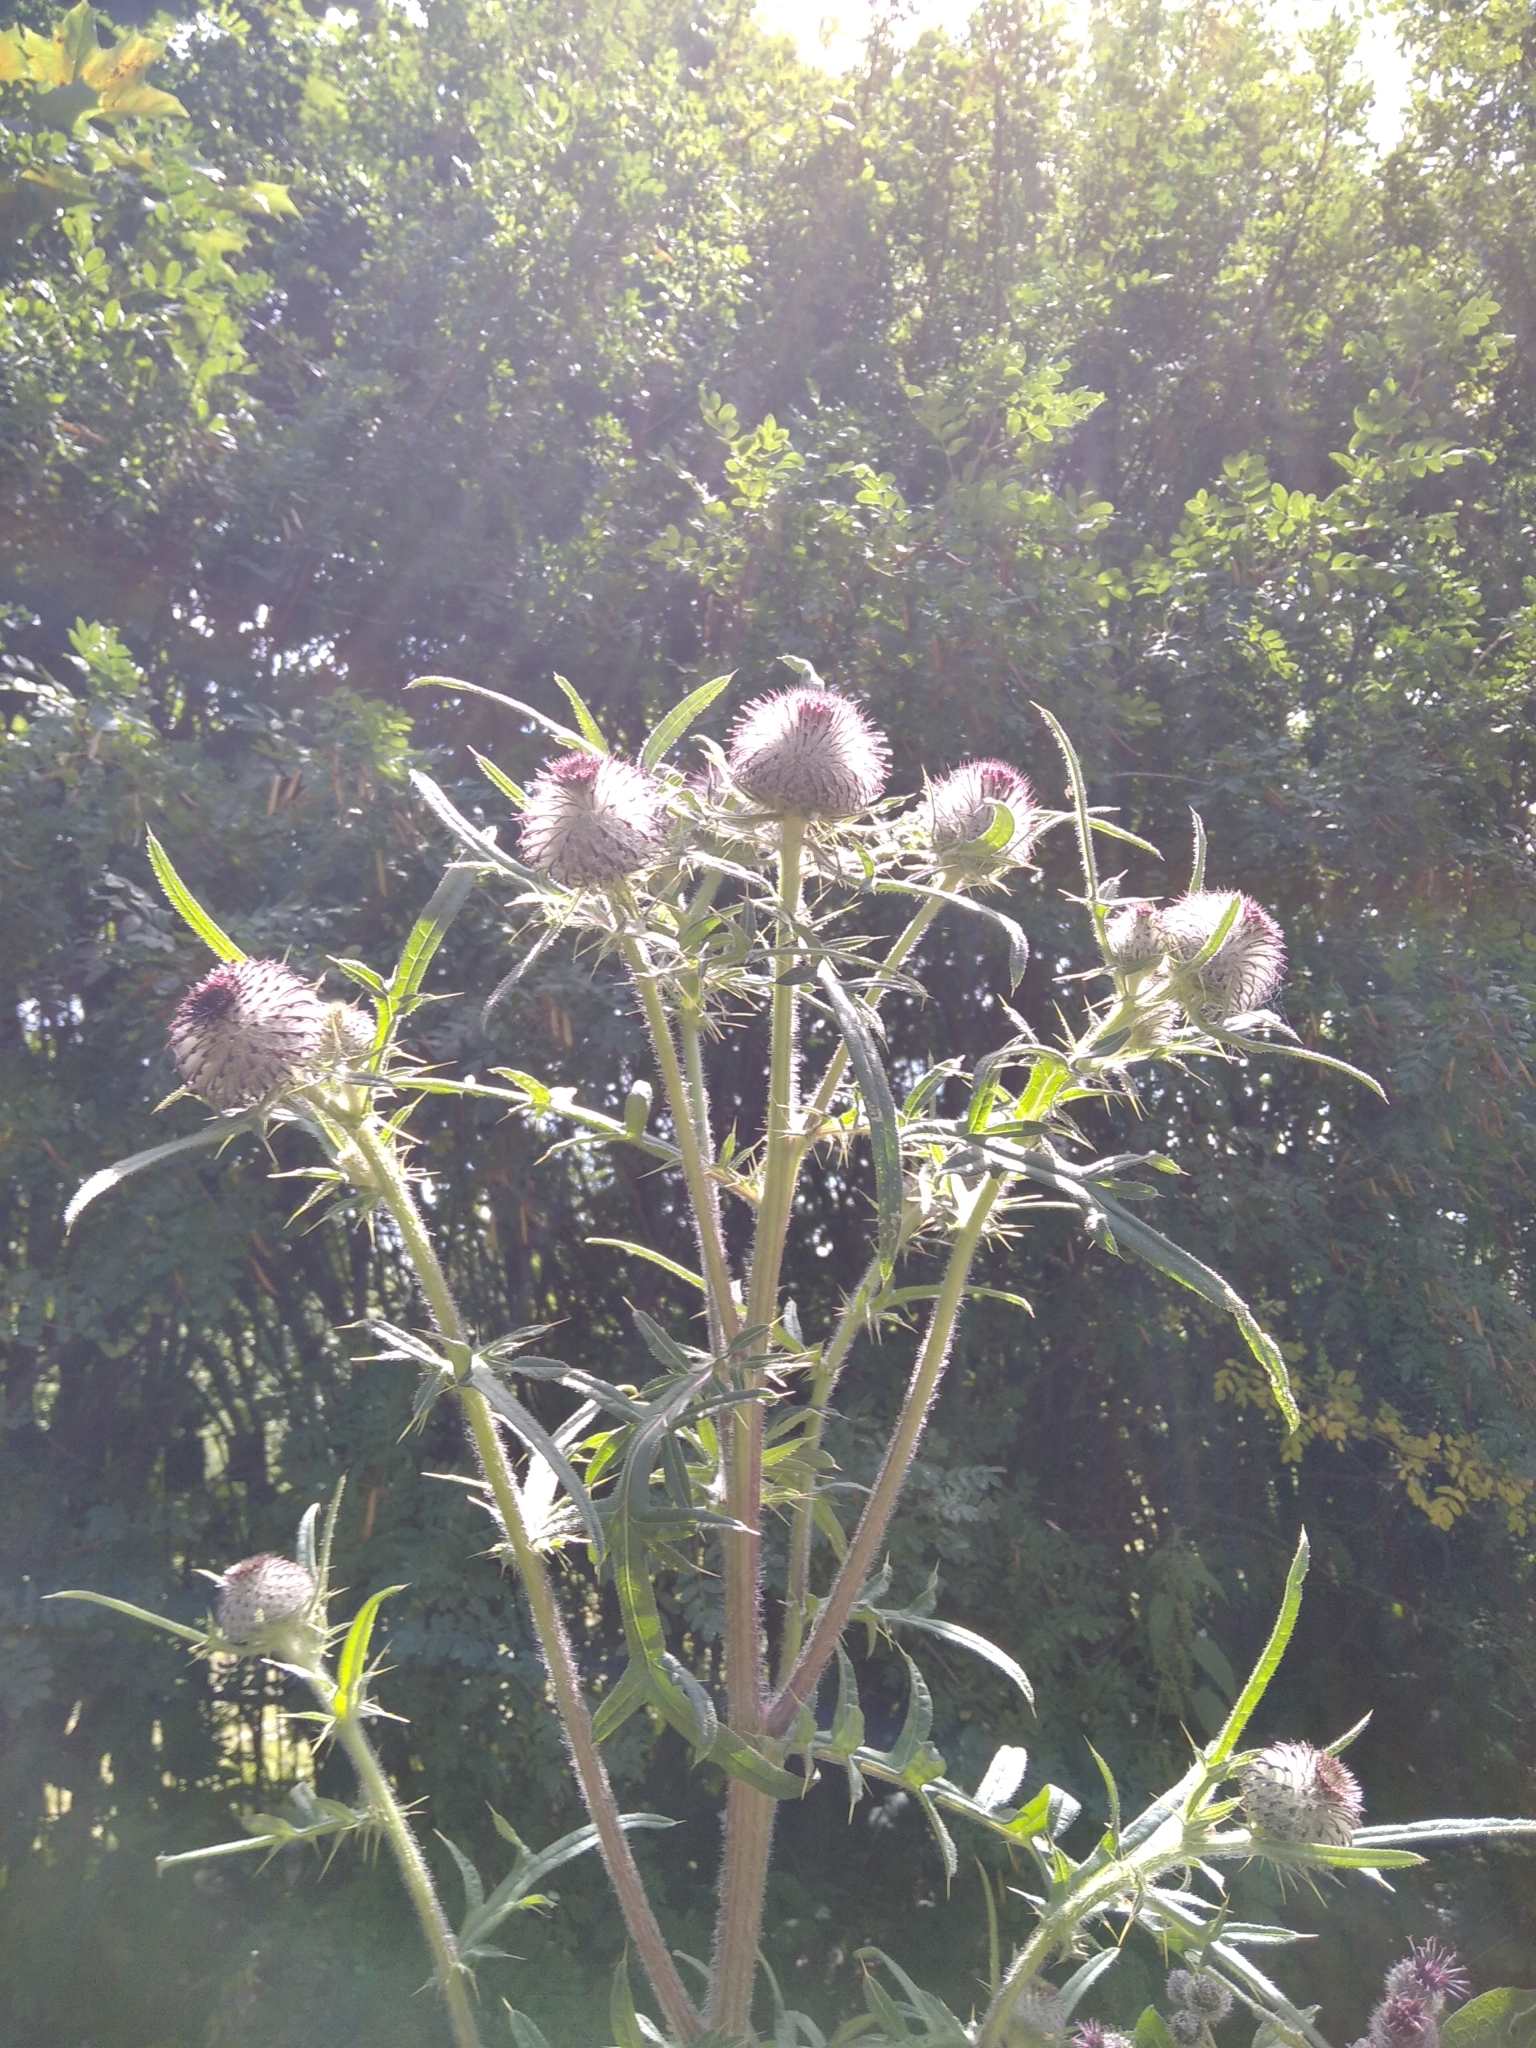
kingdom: Plantae
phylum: Tracheophyta
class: Magnoliopsida
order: Asterales
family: Asteraceae
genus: Lophiolepis
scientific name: Lophiolepis decussata
